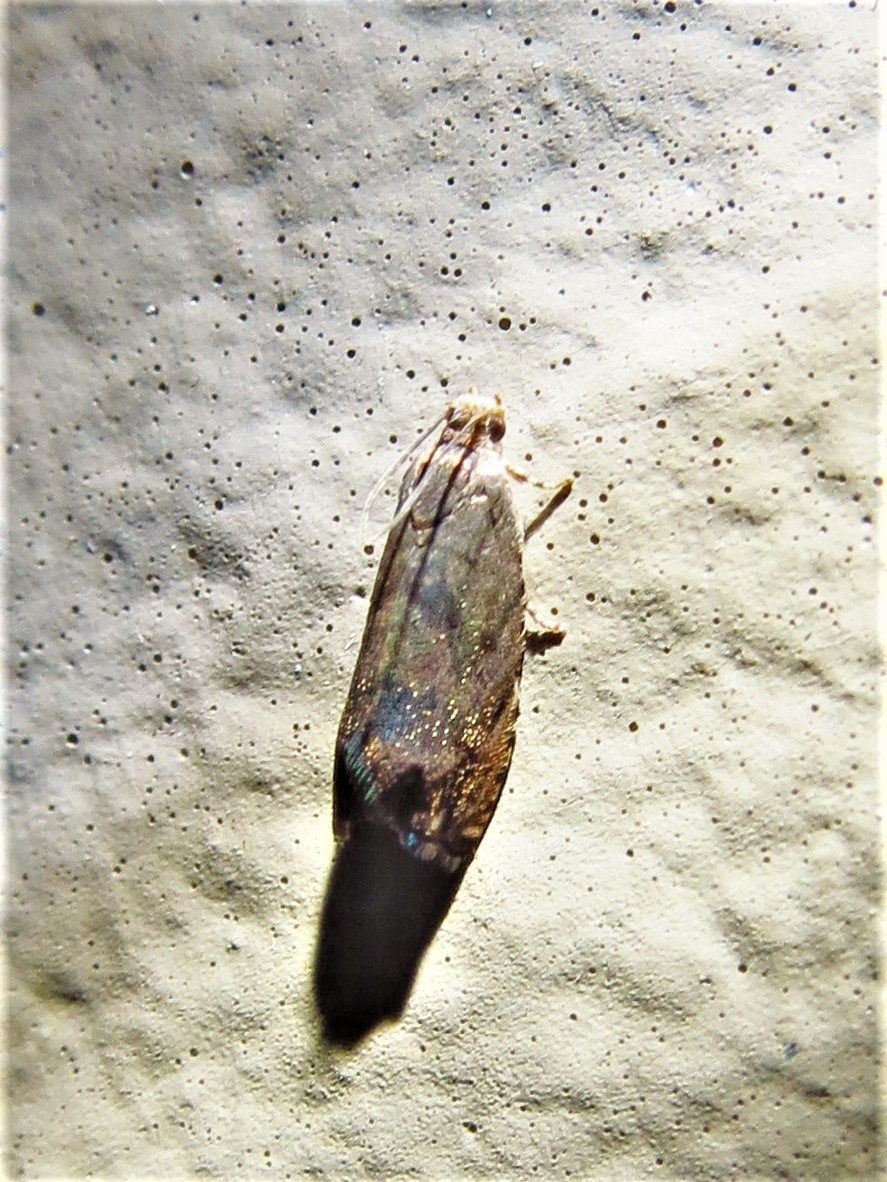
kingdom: Animalia
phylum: Arthropoda
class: Insecta
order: Lepidoptera
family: Tortricidae
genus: Cydia
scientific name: Cydia caryana
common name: Hickory shuckworm moth
